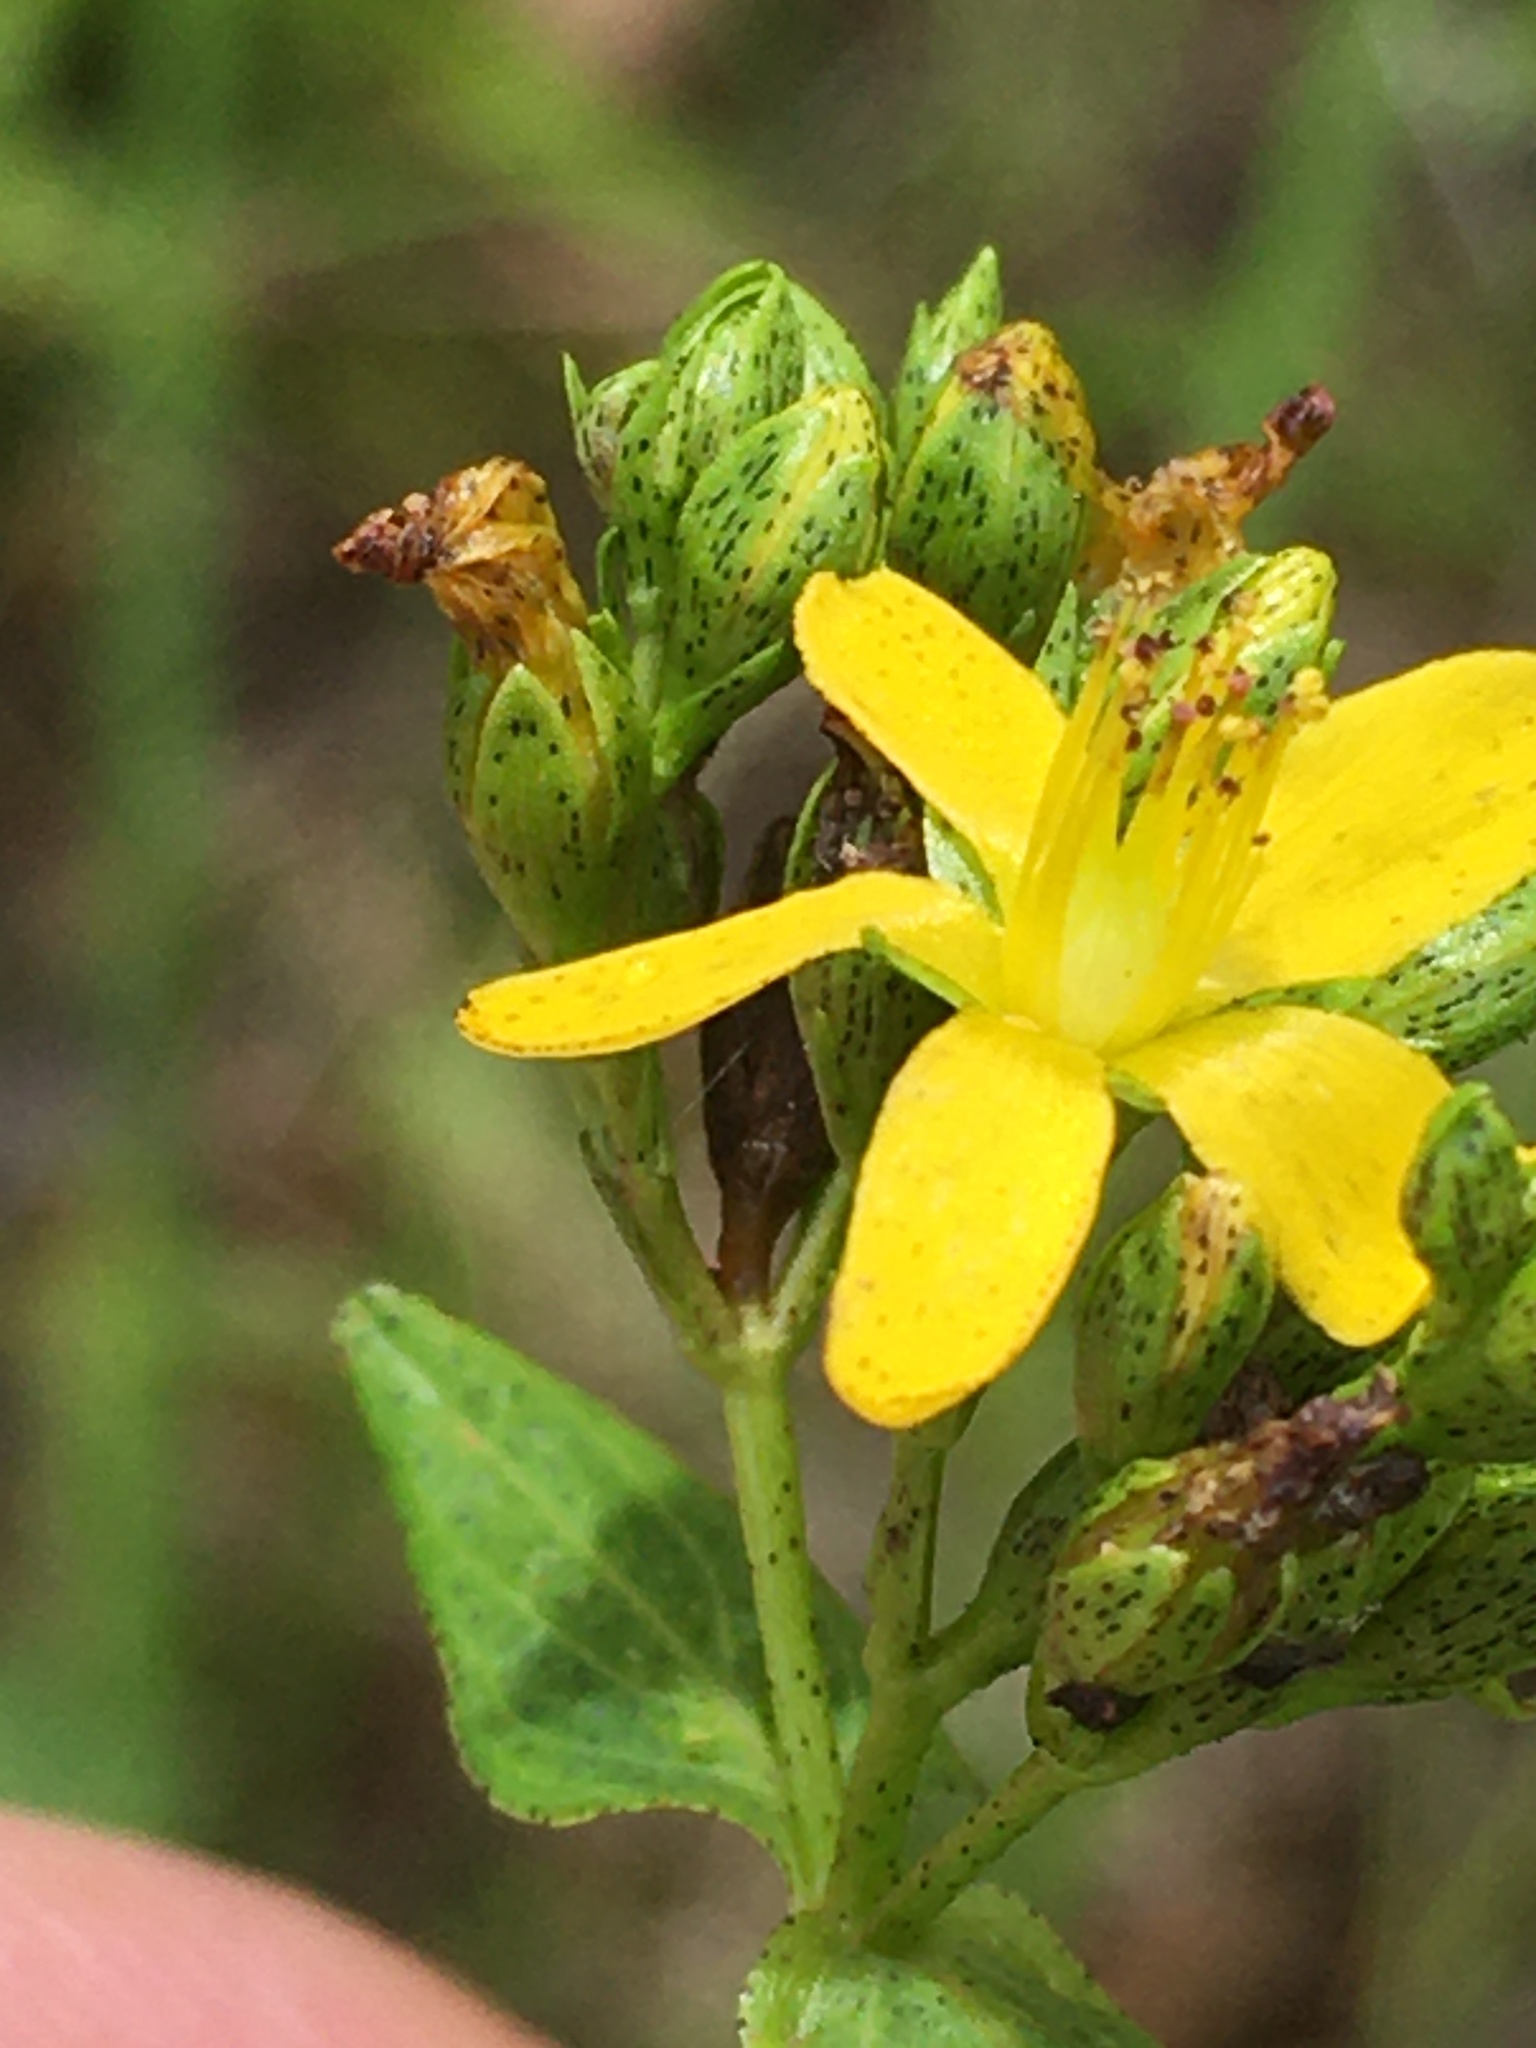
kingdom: Plantae
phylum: Tracheophyta
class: Magnoliopsida
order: Malpighiales
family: Hypericaceae
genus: Hypericum
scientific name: Hypericum punctatum
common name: Spotted st. john's-wort
